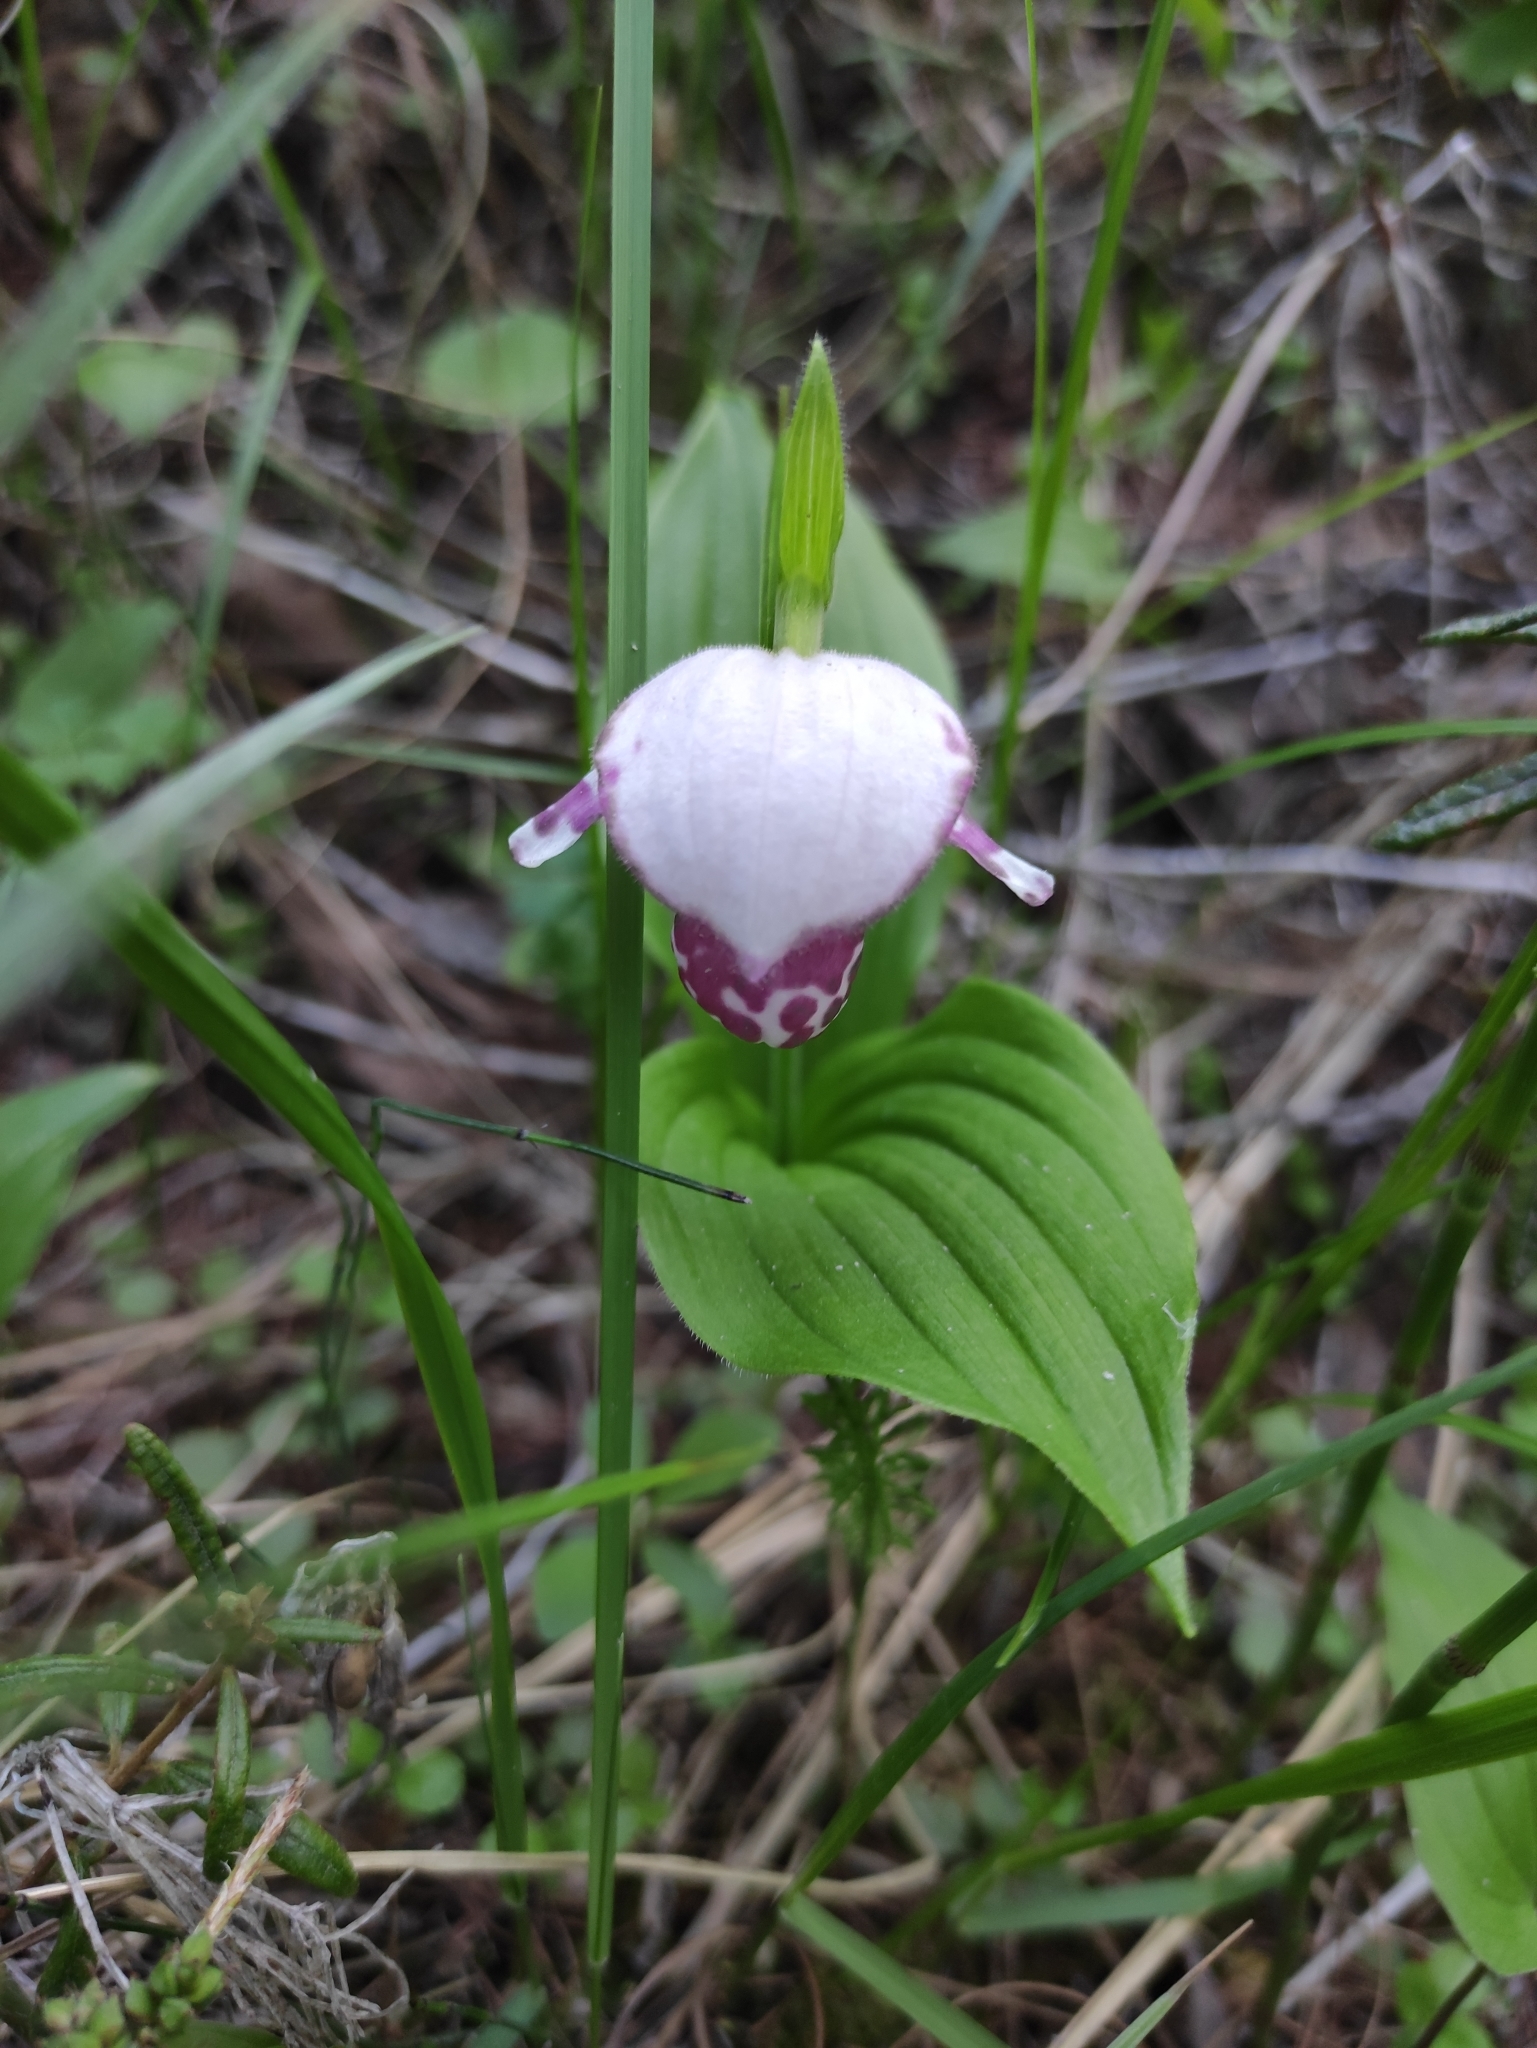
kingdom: Plantae
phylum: Tracheophyta
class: Liliopsida
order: Asparagales
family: Orchidaceae
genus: Cypripedium
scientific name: Cypripedium guttatum
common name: Pink lady slipper
